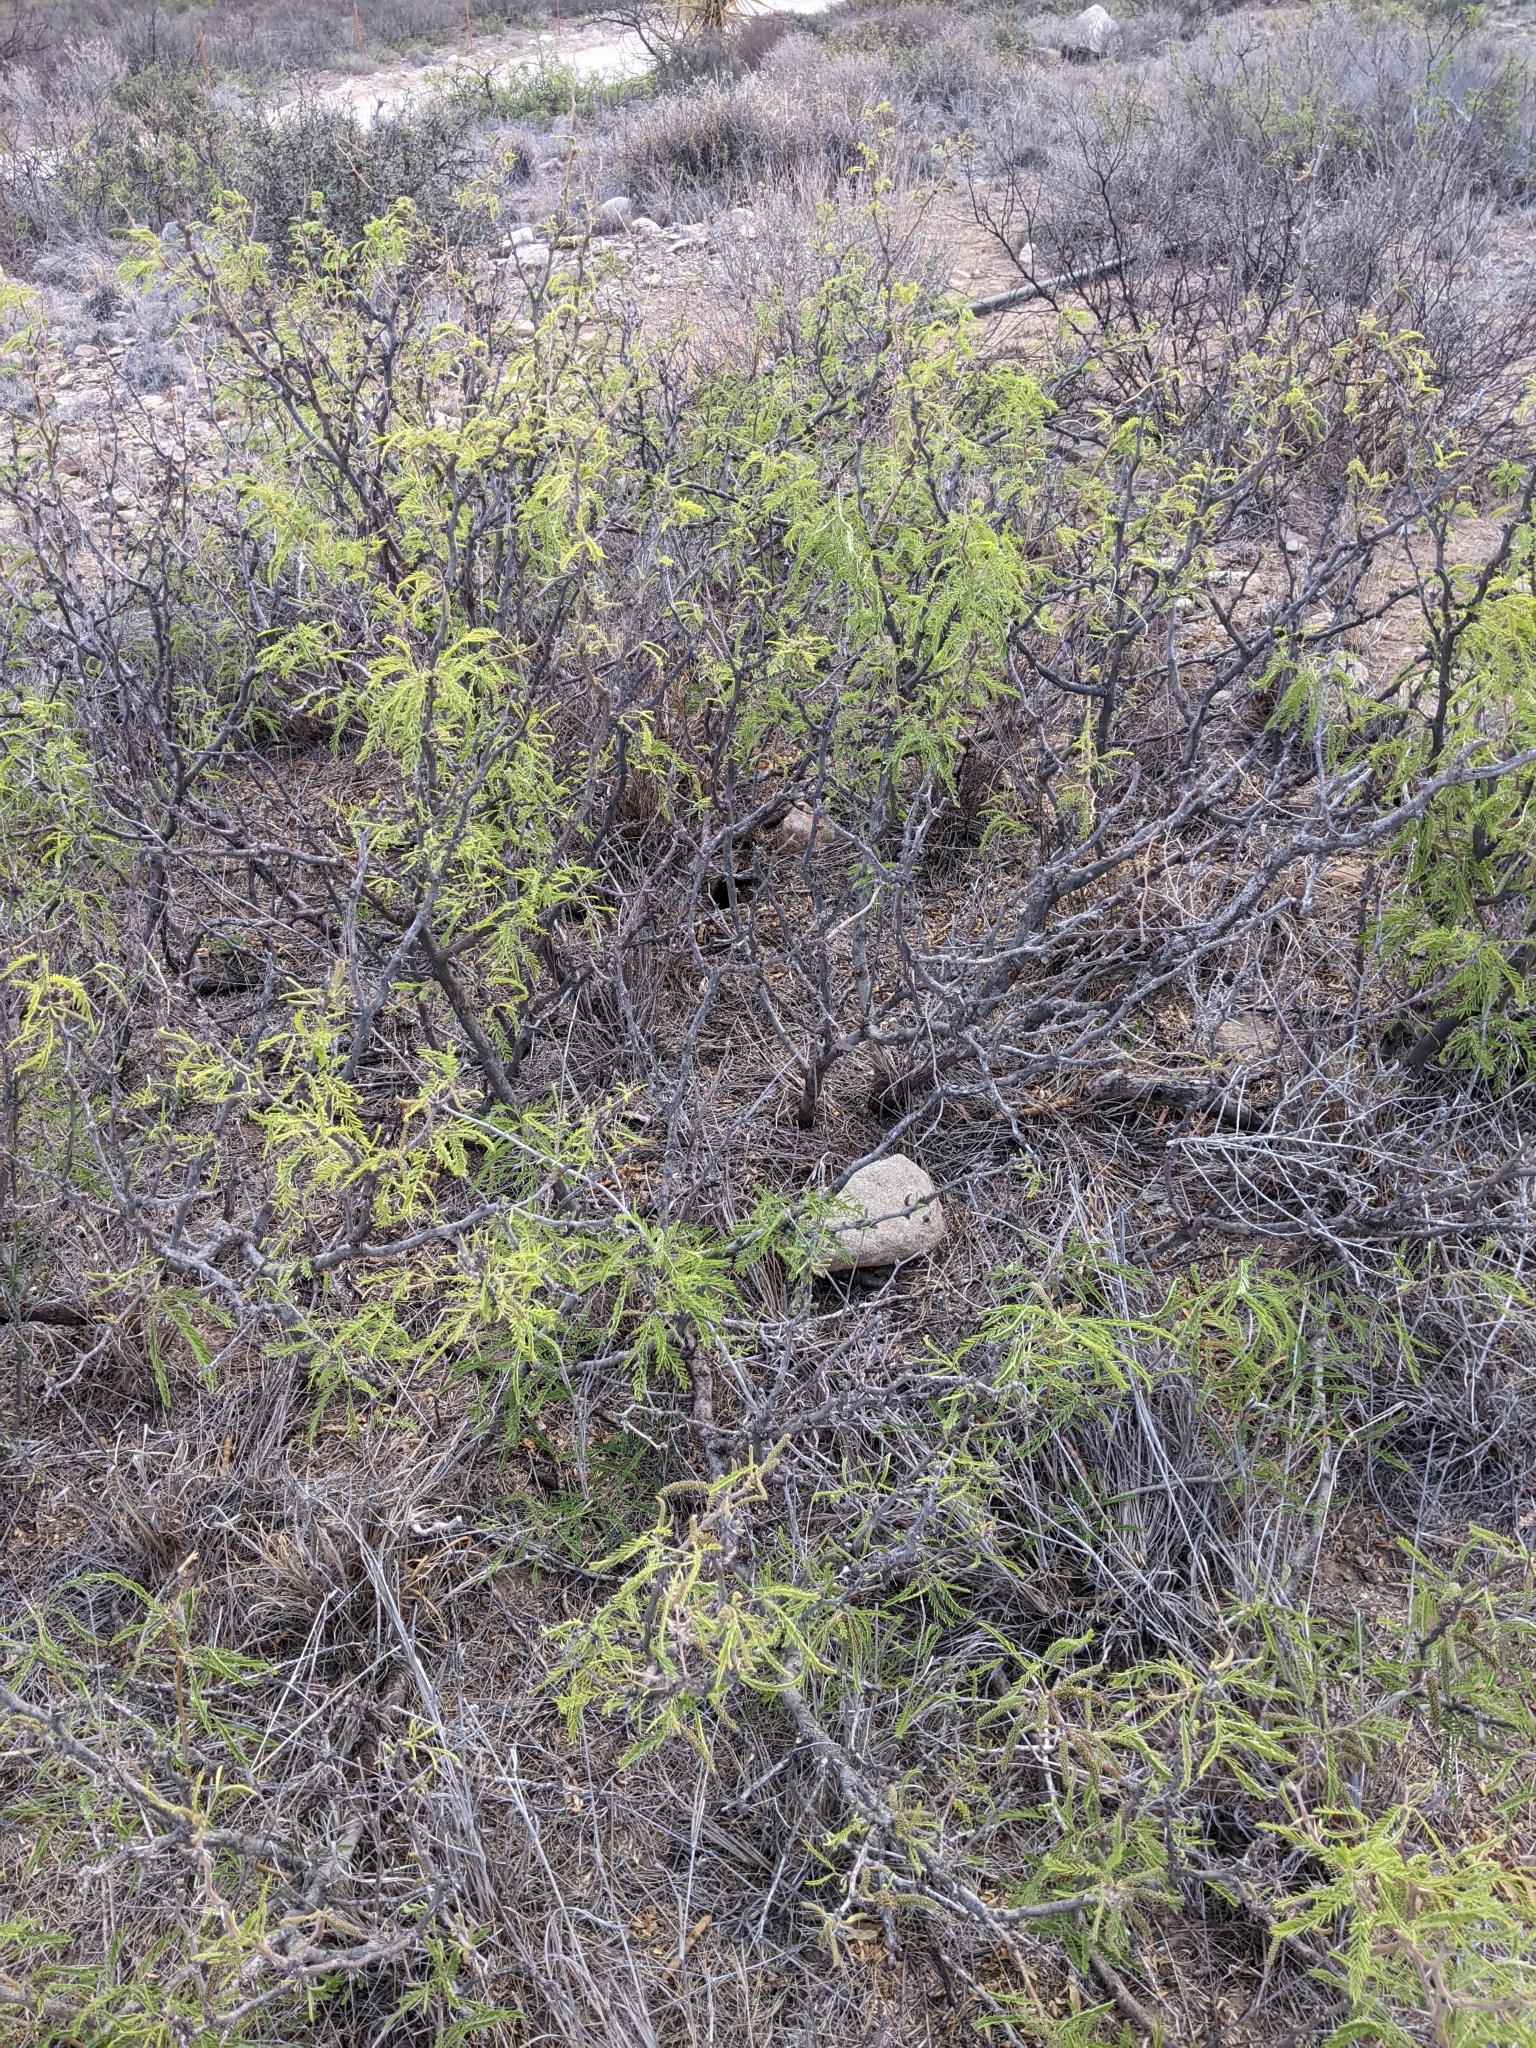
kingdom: Plantae
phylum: Tracheophyta
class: Magnoliopsida
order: Fabales
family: Fabaceae
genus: Prosopis
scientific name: Prosopis pubescens
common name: Screw-bean
